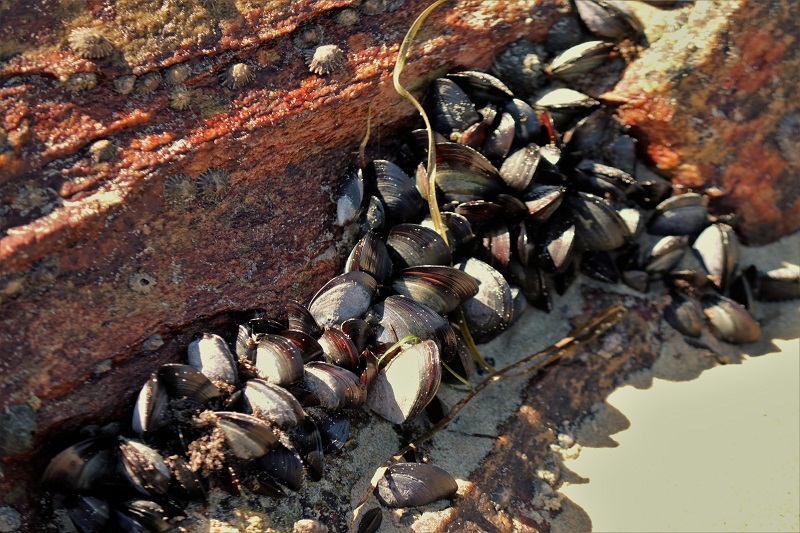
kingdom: Animalia
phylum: Mollusca
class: Bivalvia
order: Mytilida
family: Mytilidae
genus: Mytilus
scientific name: Mytilus galloprovincialis
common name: Mediterranean mussel
